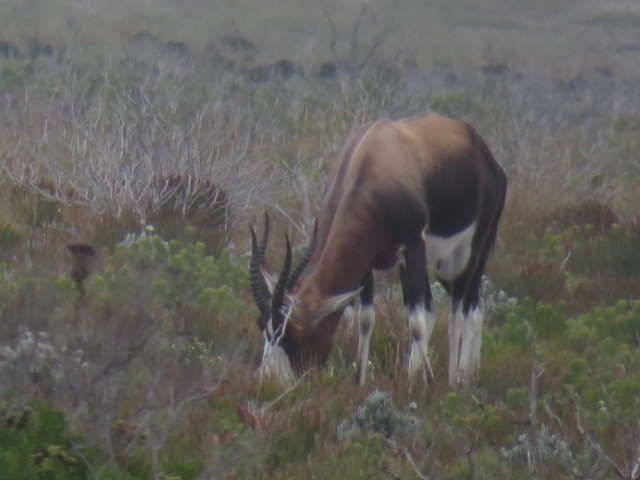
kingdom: Animalia
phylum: Chordata
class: Mammalia
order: Artiodactyla
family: Bovidae
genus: Damaliscus
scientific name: Damaliscus pygargus
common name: Bontebok
